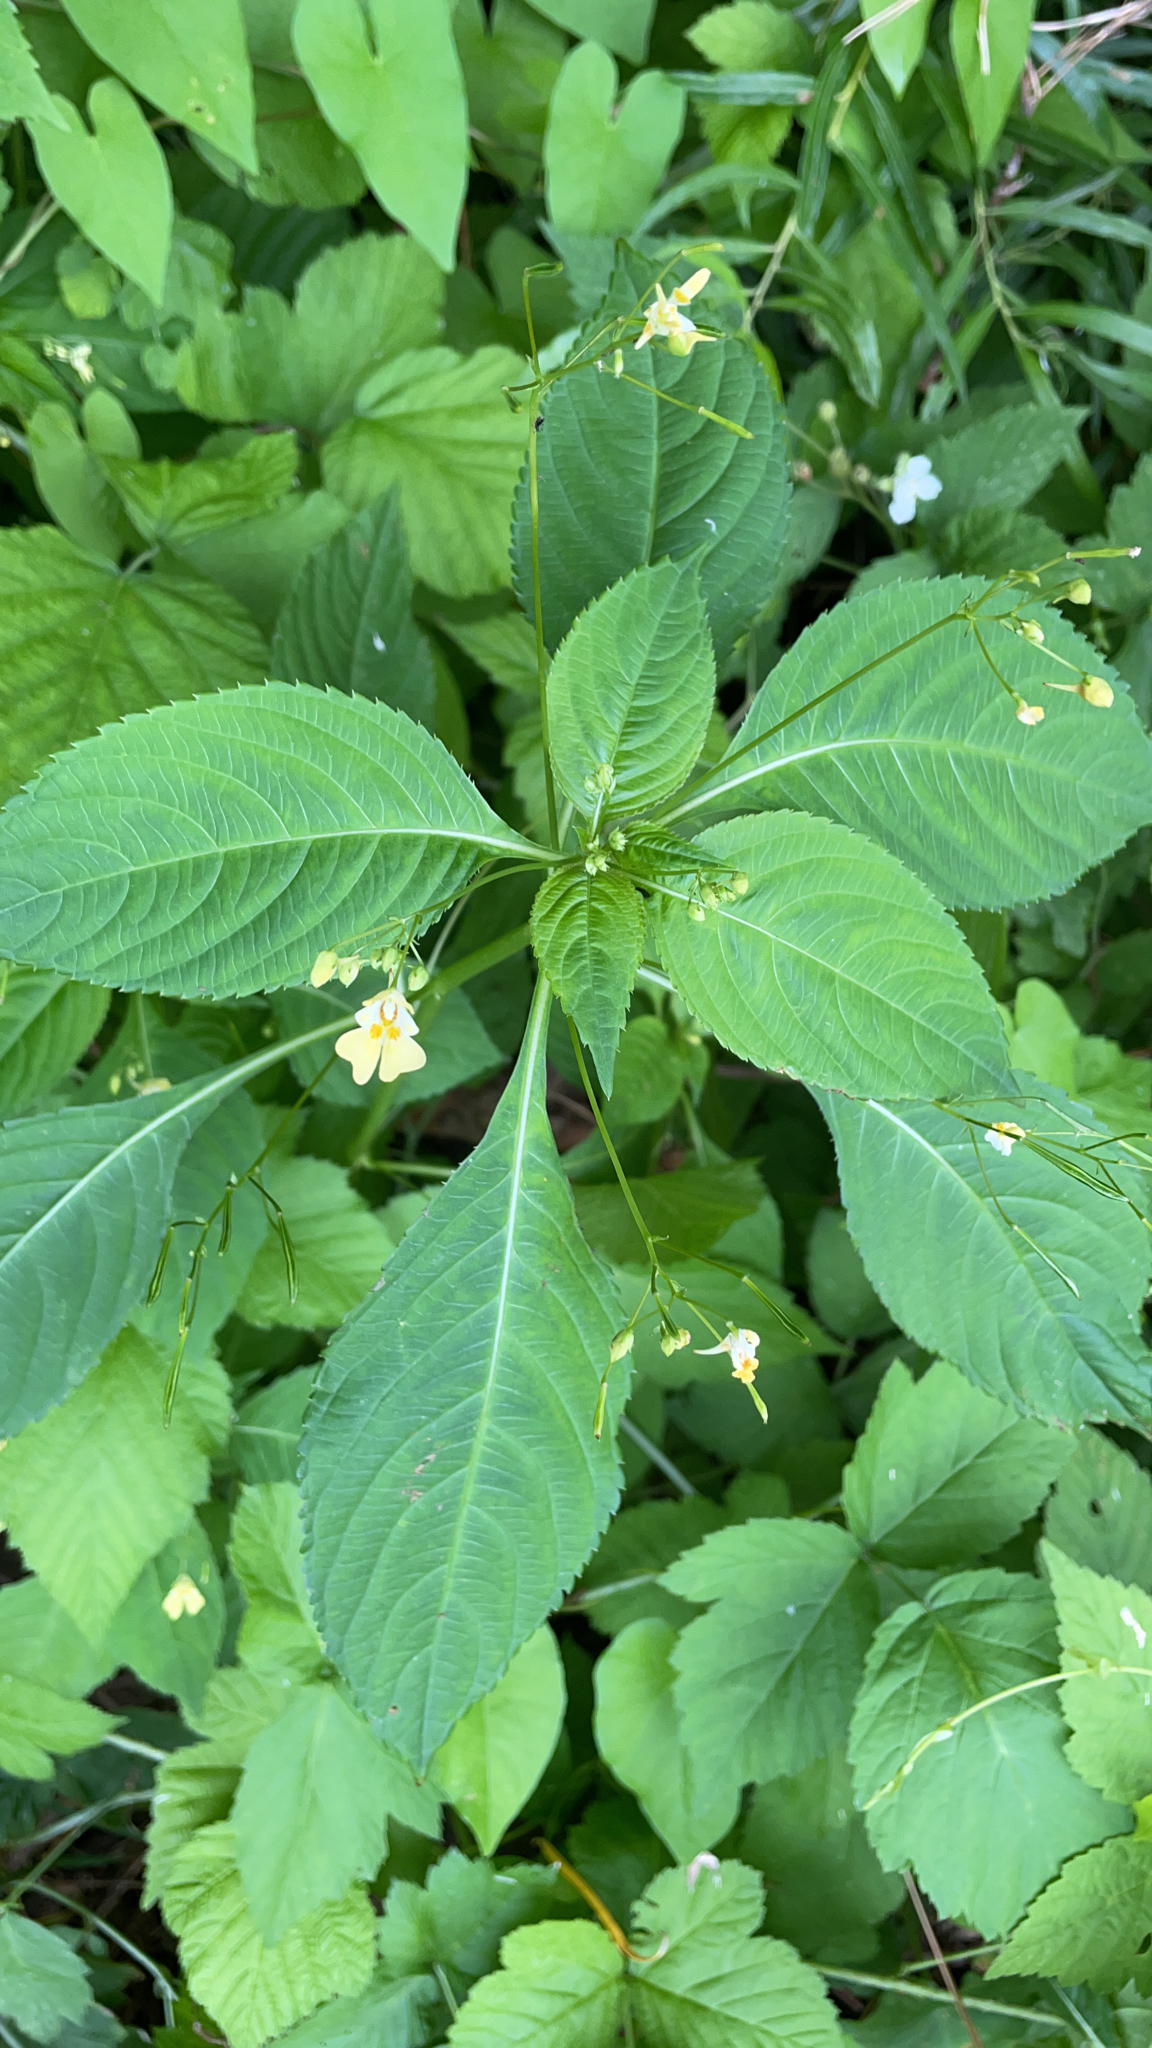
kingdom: Plantae
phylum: Tracheophyta
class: Magnoliopsida
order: Ericales
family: Balsaminaceae
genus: Impatiens
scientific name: Impatiens parviflora
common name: Small balsam
